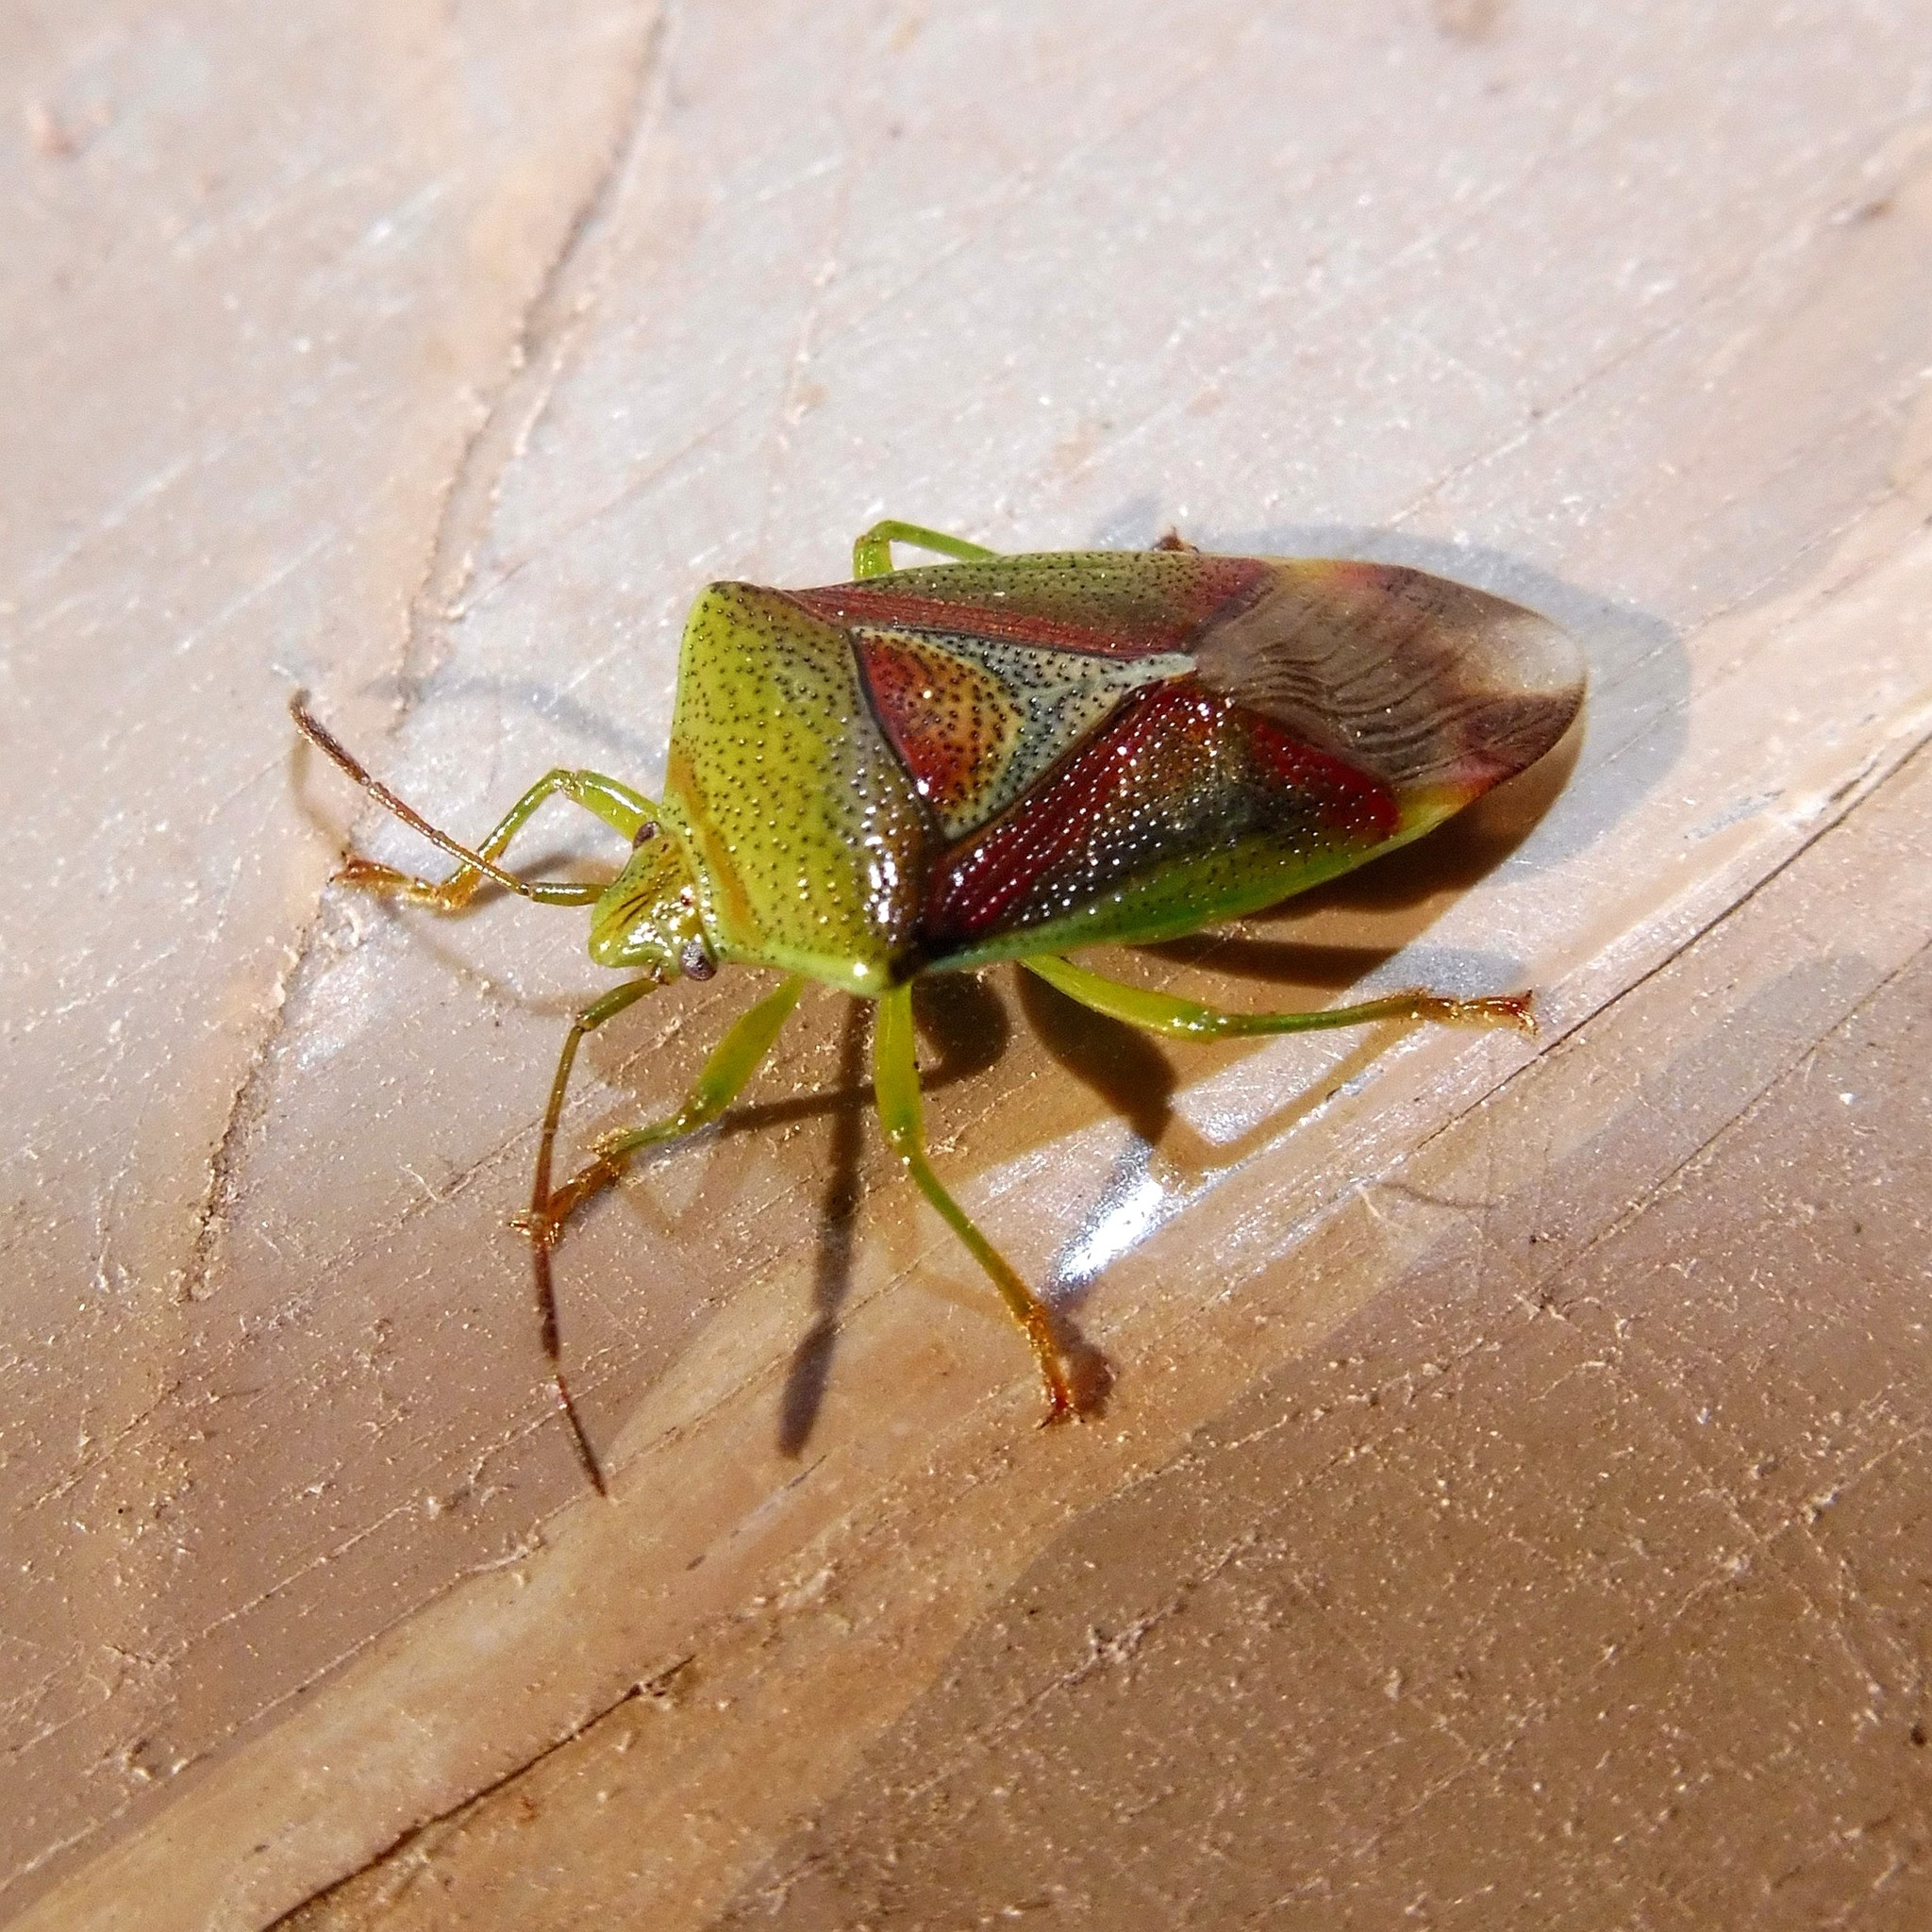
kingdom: Animalia
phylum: Arthropoda
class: Insecta
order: Hemiptera
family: Acanthosomatidae
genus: Elasmostethus
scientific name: Elasmostethus interstinctus
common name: Birch shieldbug
